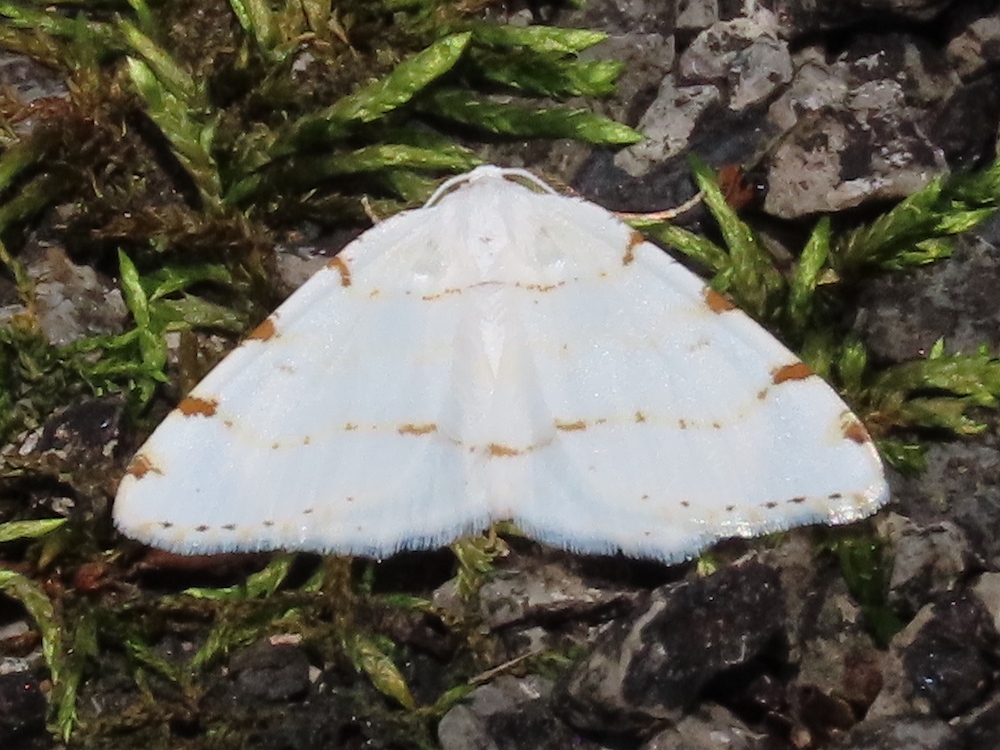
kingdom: Animalia
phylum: Arthropoda
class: Insecta
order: Lepidoptera
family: Geometridae
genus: Macaria
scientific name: Macaria pustularia
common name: Lesser maple spanworm moth
